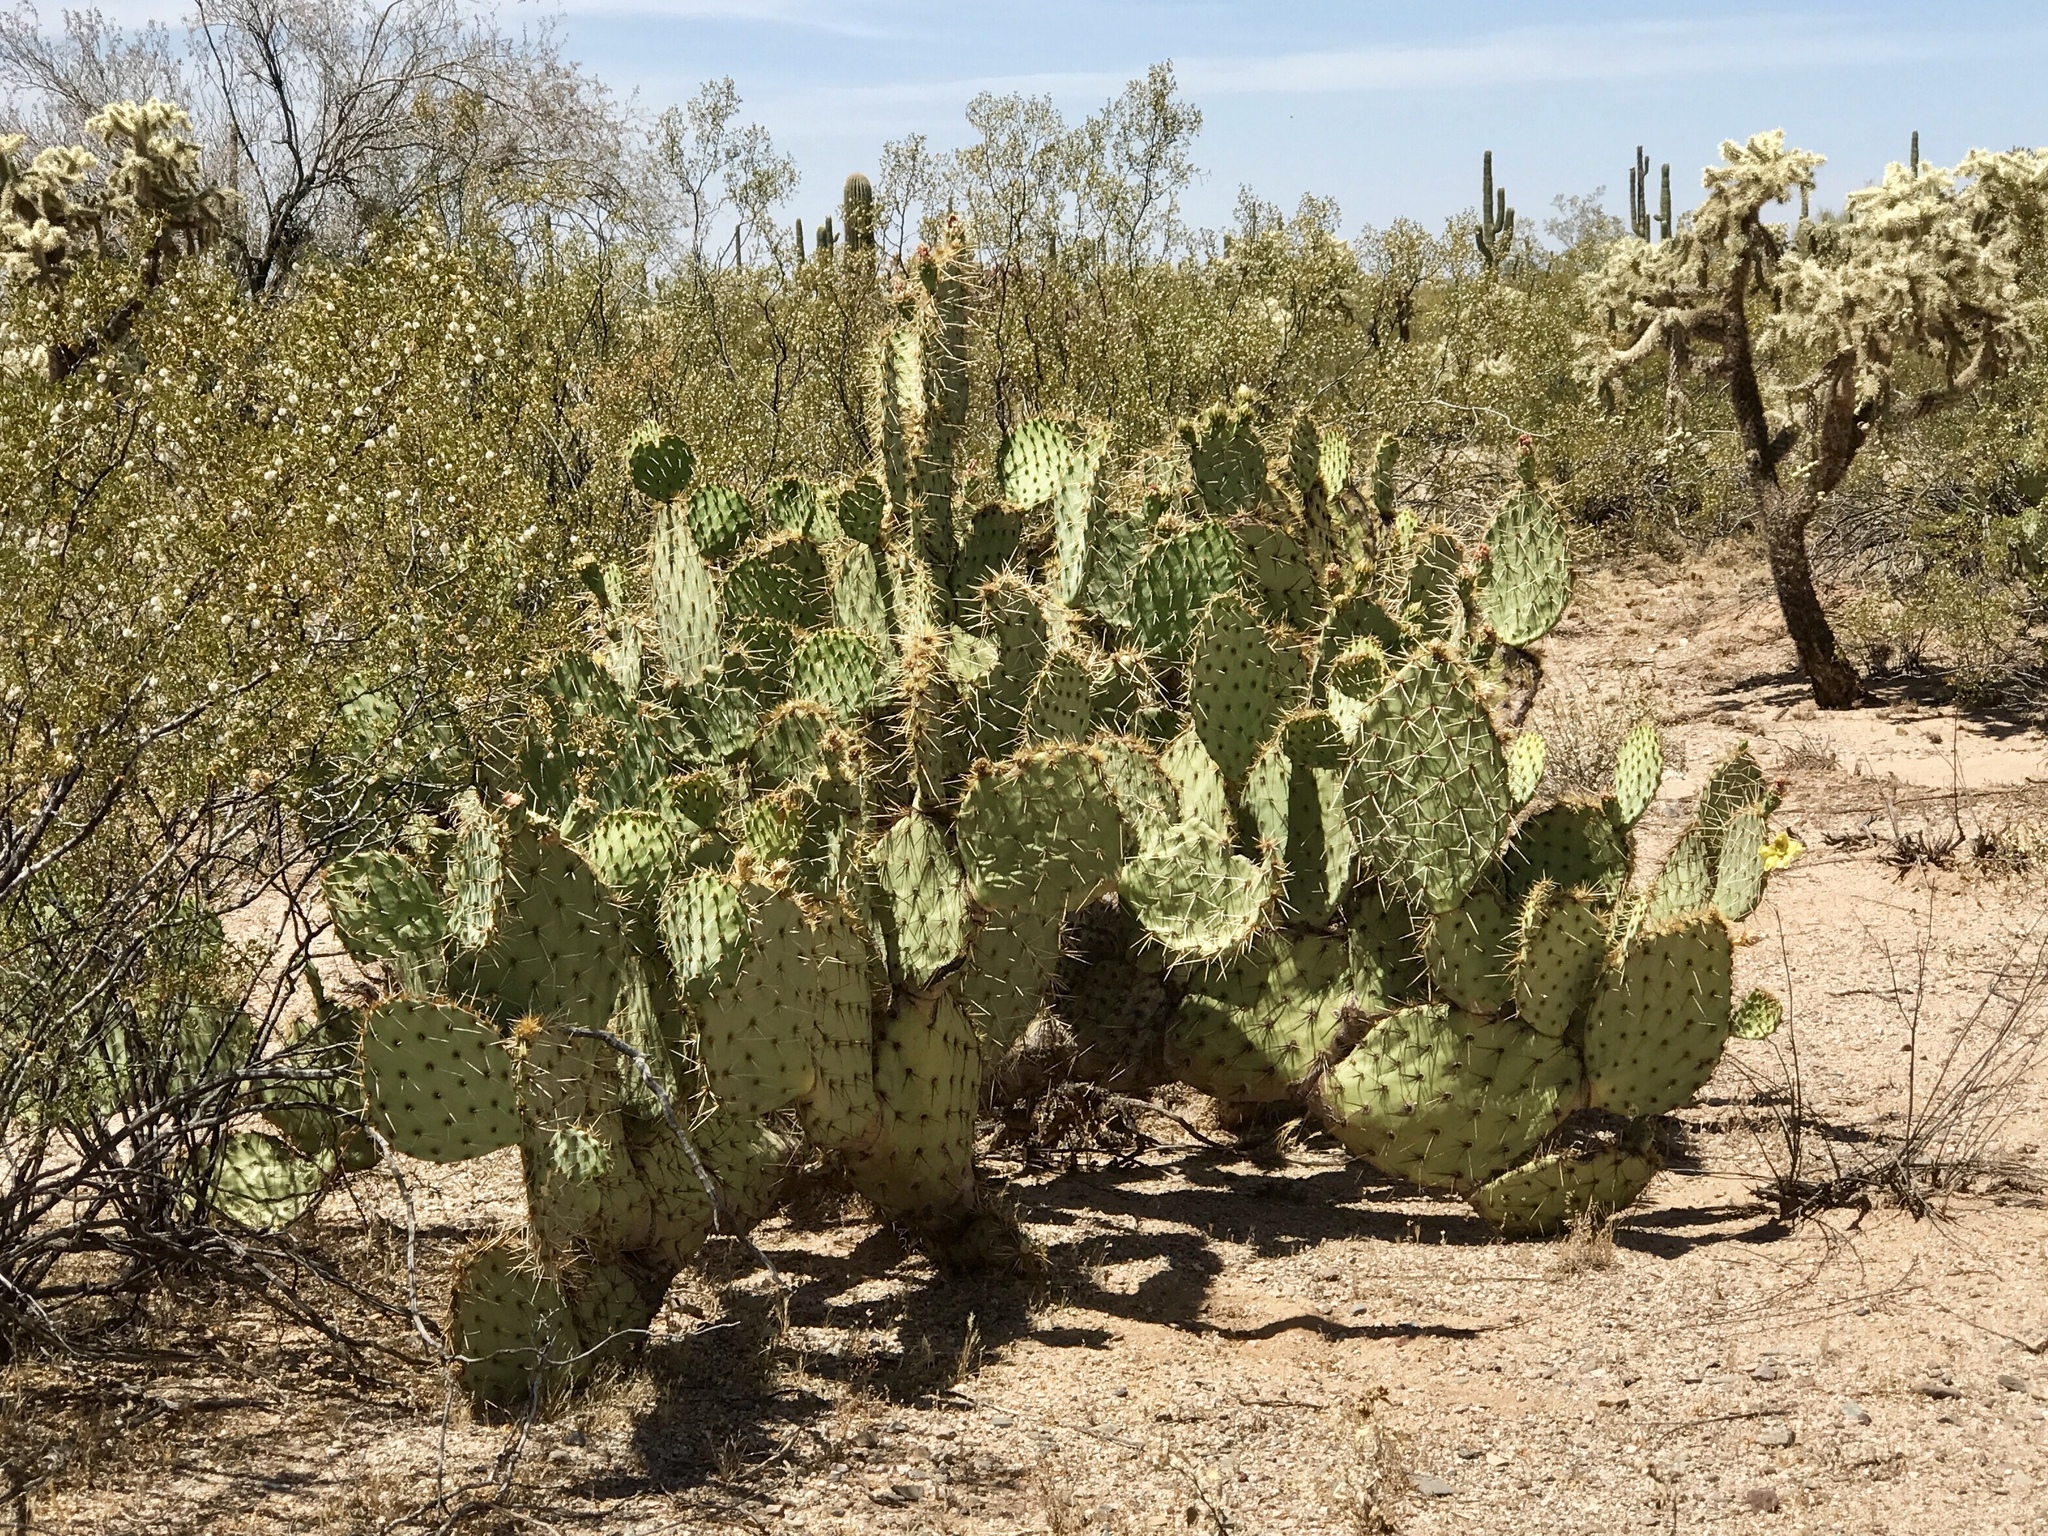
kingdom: Plantae
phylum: Tracheophyta
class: Magnoliopsida
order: Caryophyllales
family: Cactaceae
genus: Opuntia
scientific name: Opuntia engelmannii
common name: Cactus-apple
